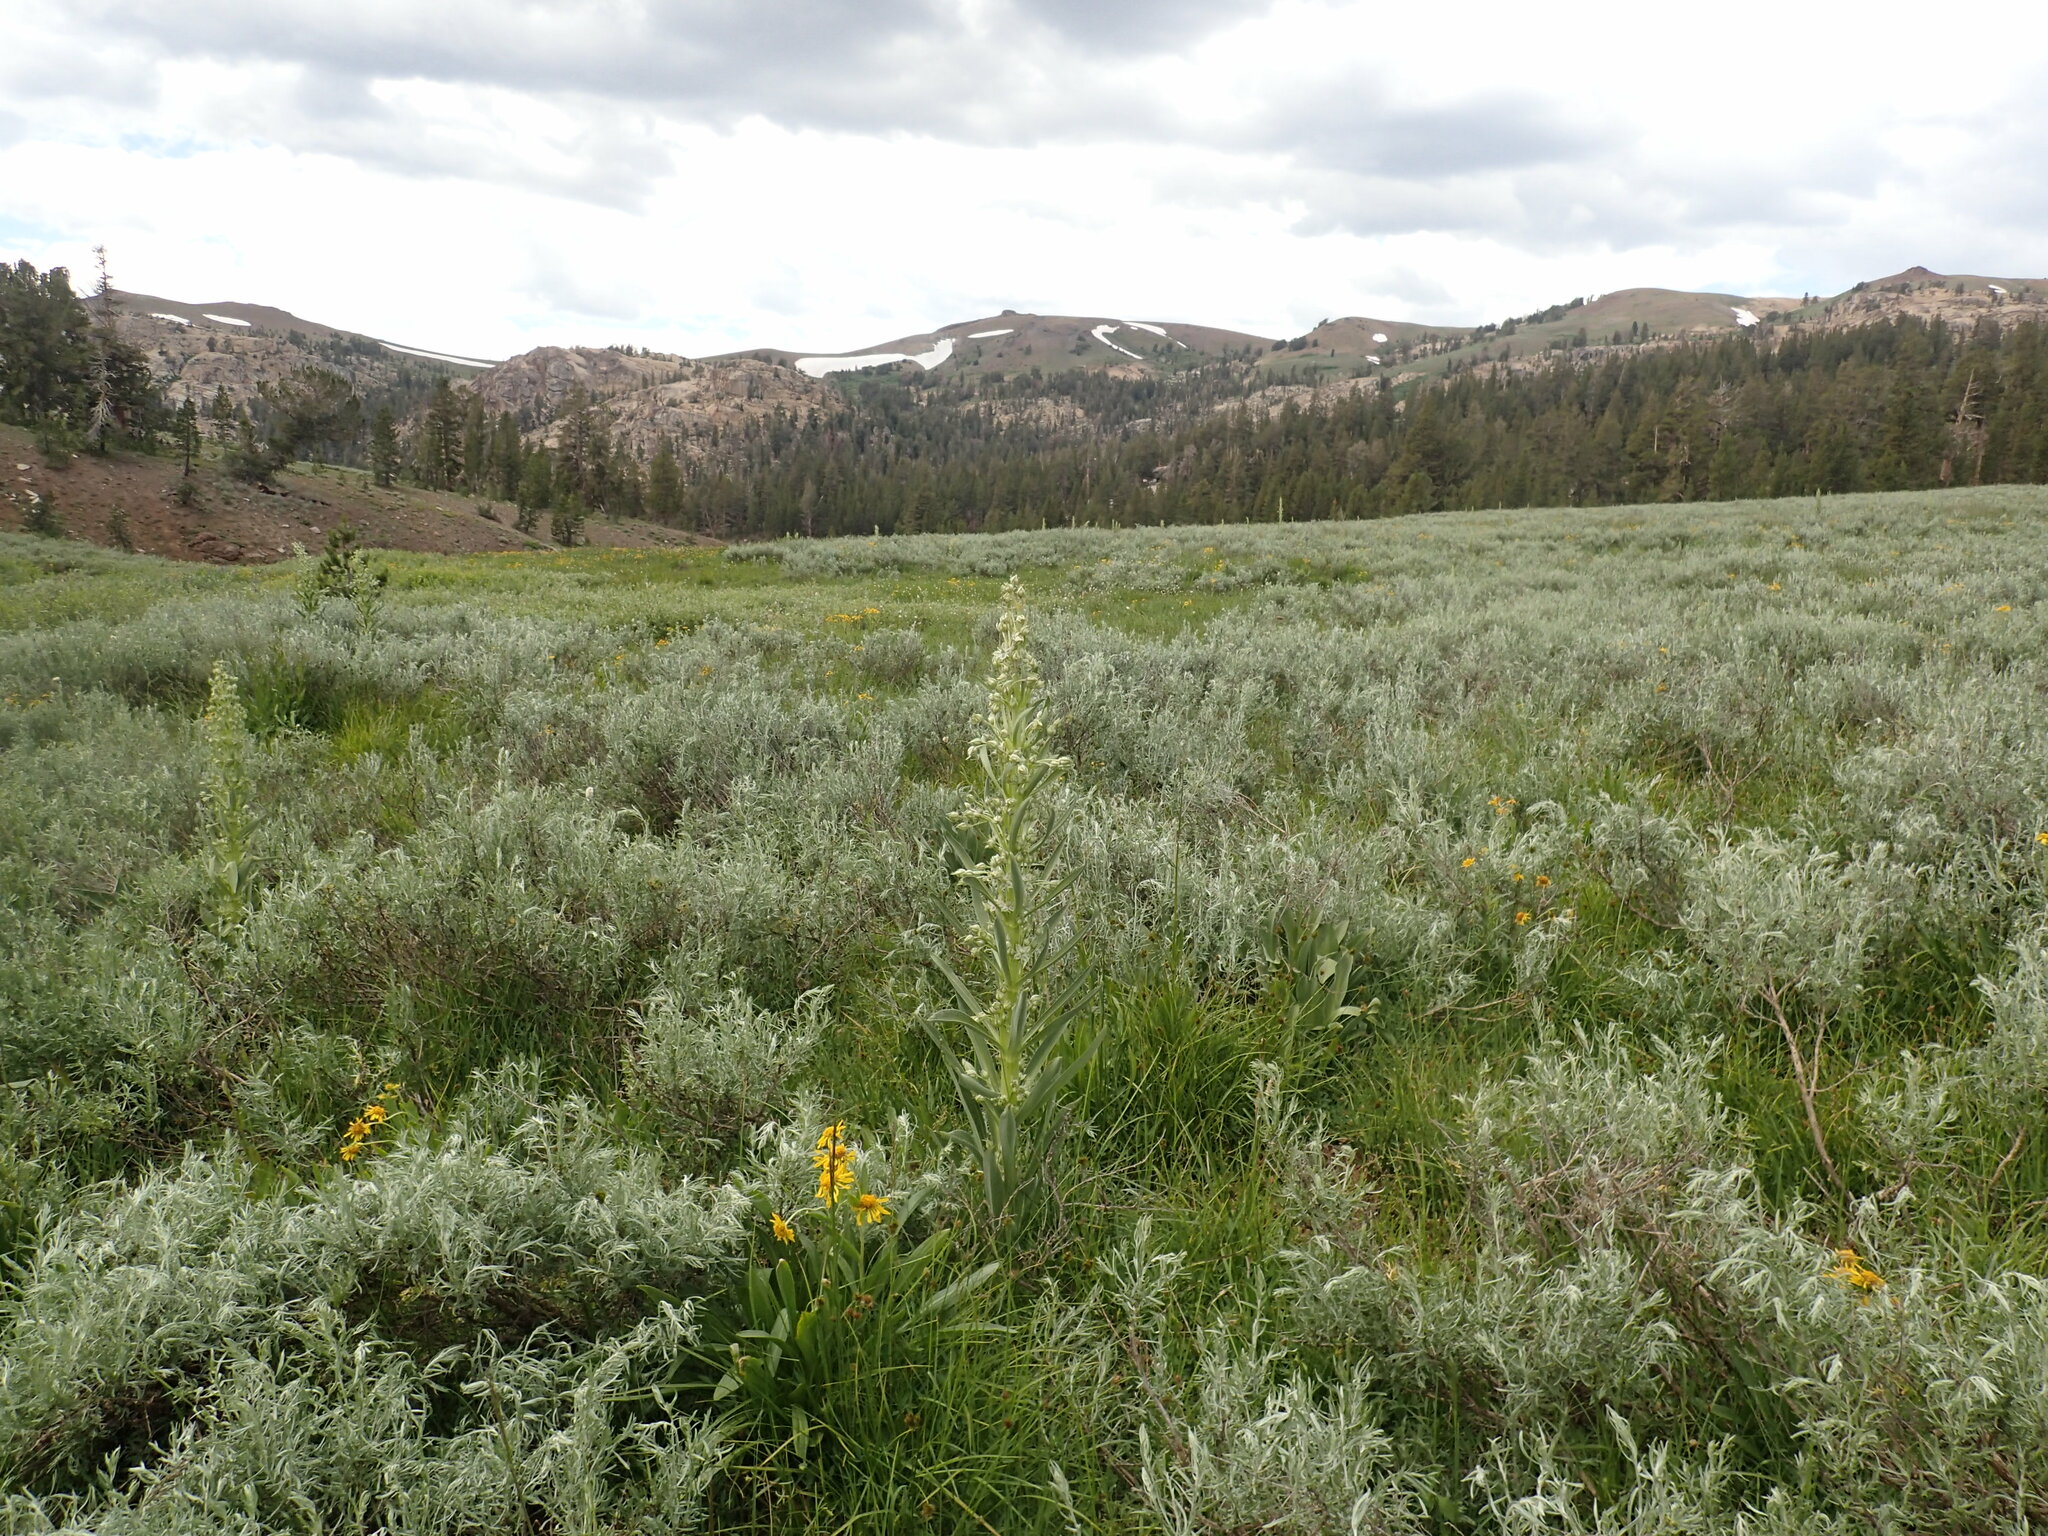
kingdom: Plantae
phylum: Tracheophyta
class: Magnoliopsida
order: Gentianales
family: Gentianaceae
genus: Frasera
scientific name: Frasera speciosa
